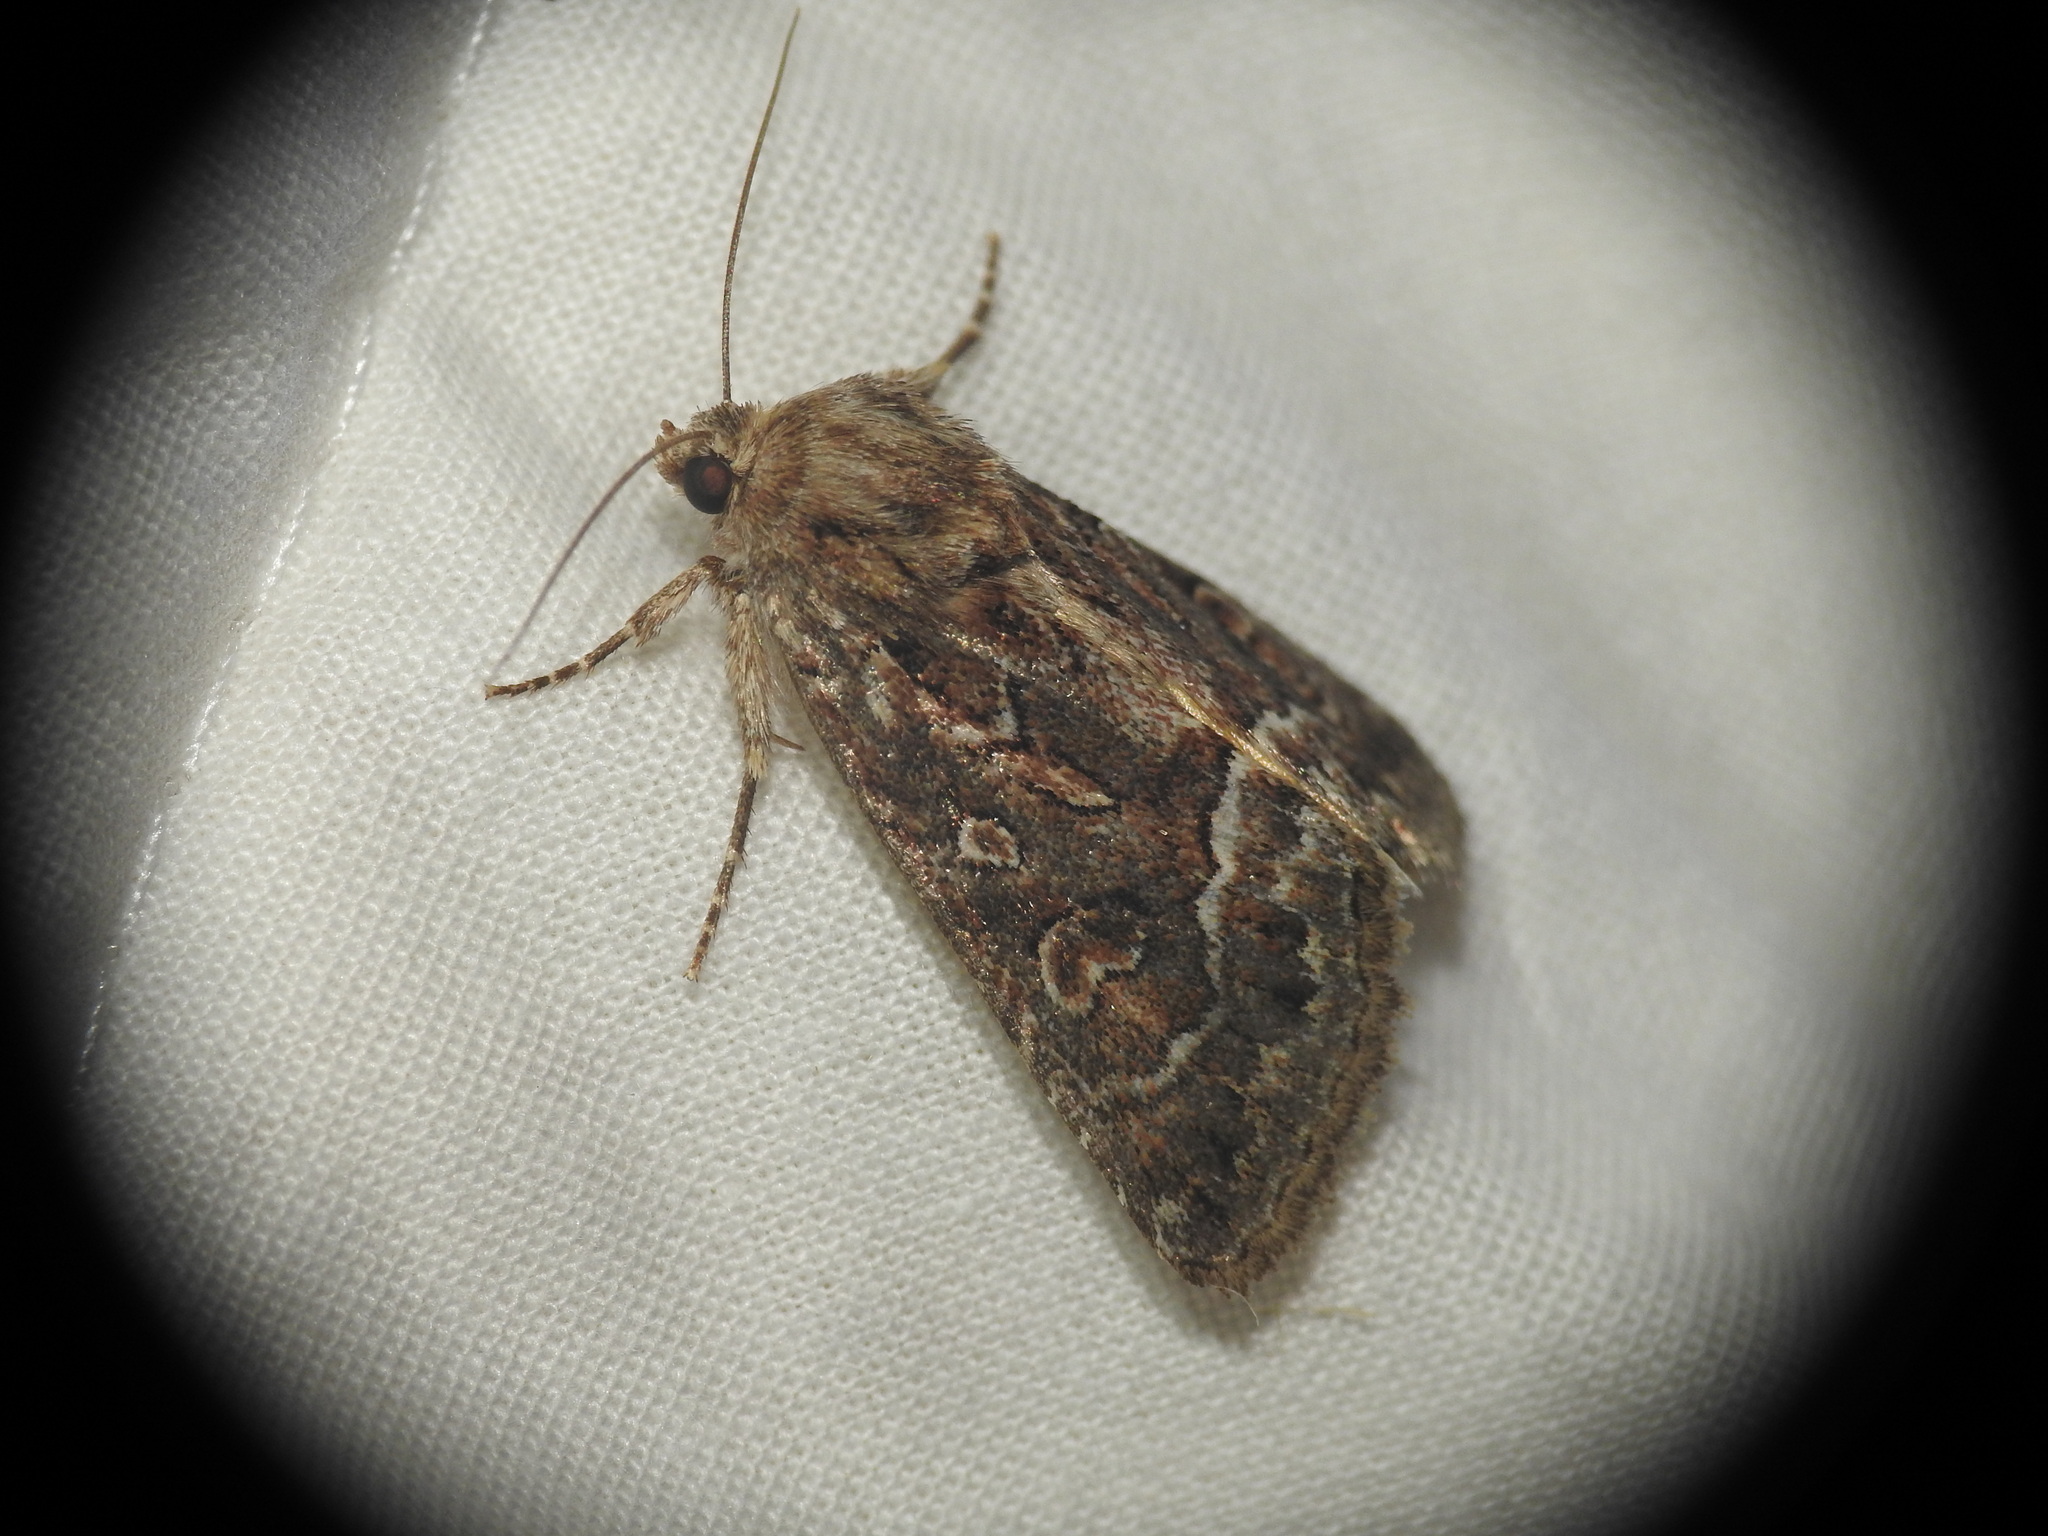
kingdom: Animalia
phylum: Arthropoda
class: Insecta
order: Lepidoptera
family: Noctuidae
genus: Thalpophila
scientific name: Thalpophila matura
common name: Straw underwing
